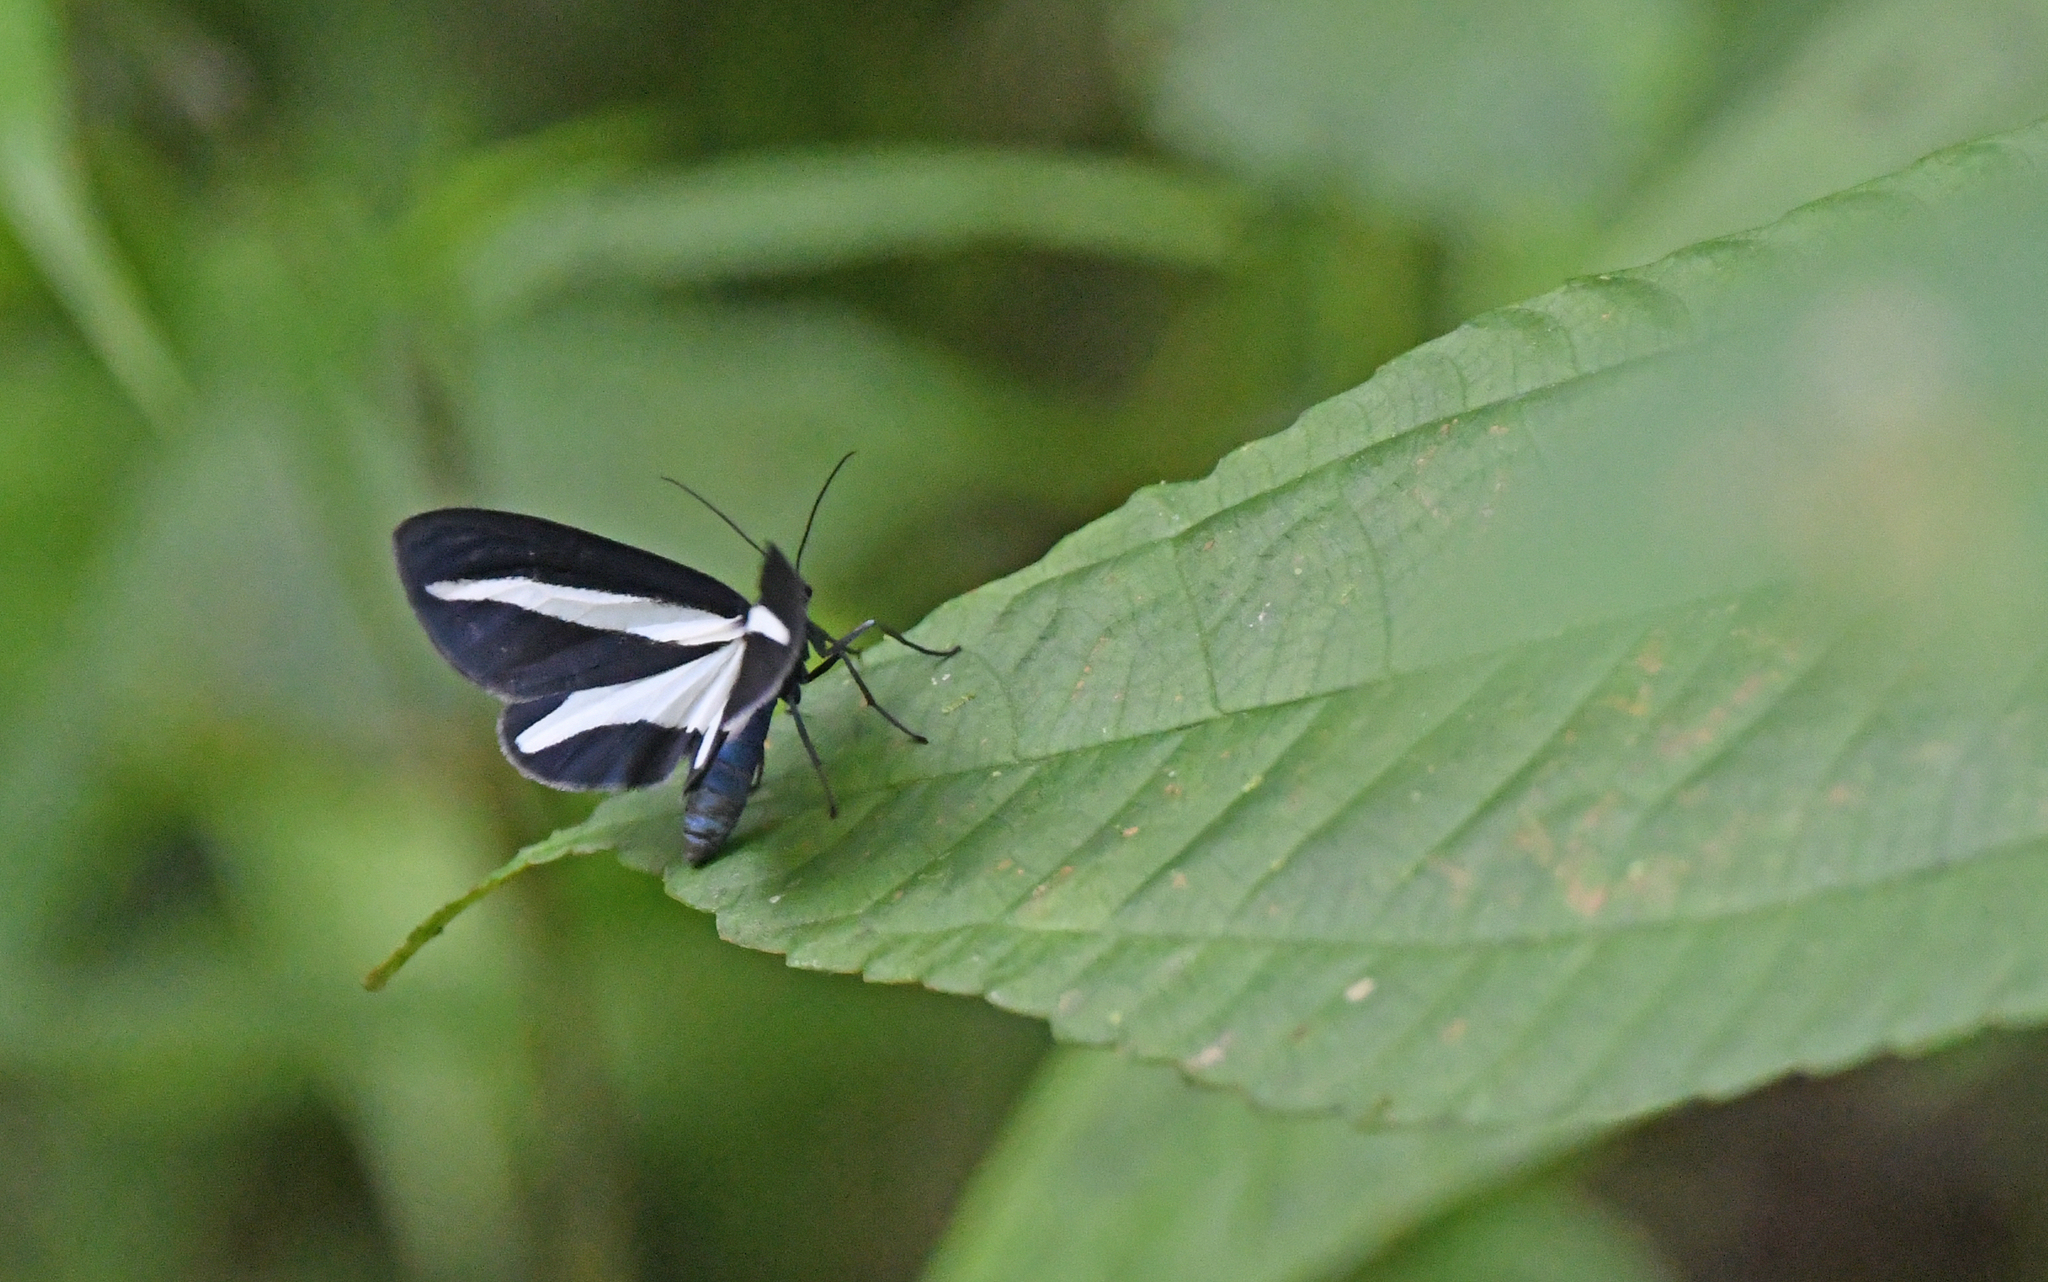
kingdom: Animalia
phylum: Arthropoda
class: Insecta
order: Lepidoptera
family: Erebidae
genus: Crocomela
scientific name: Crocomela albolineata
